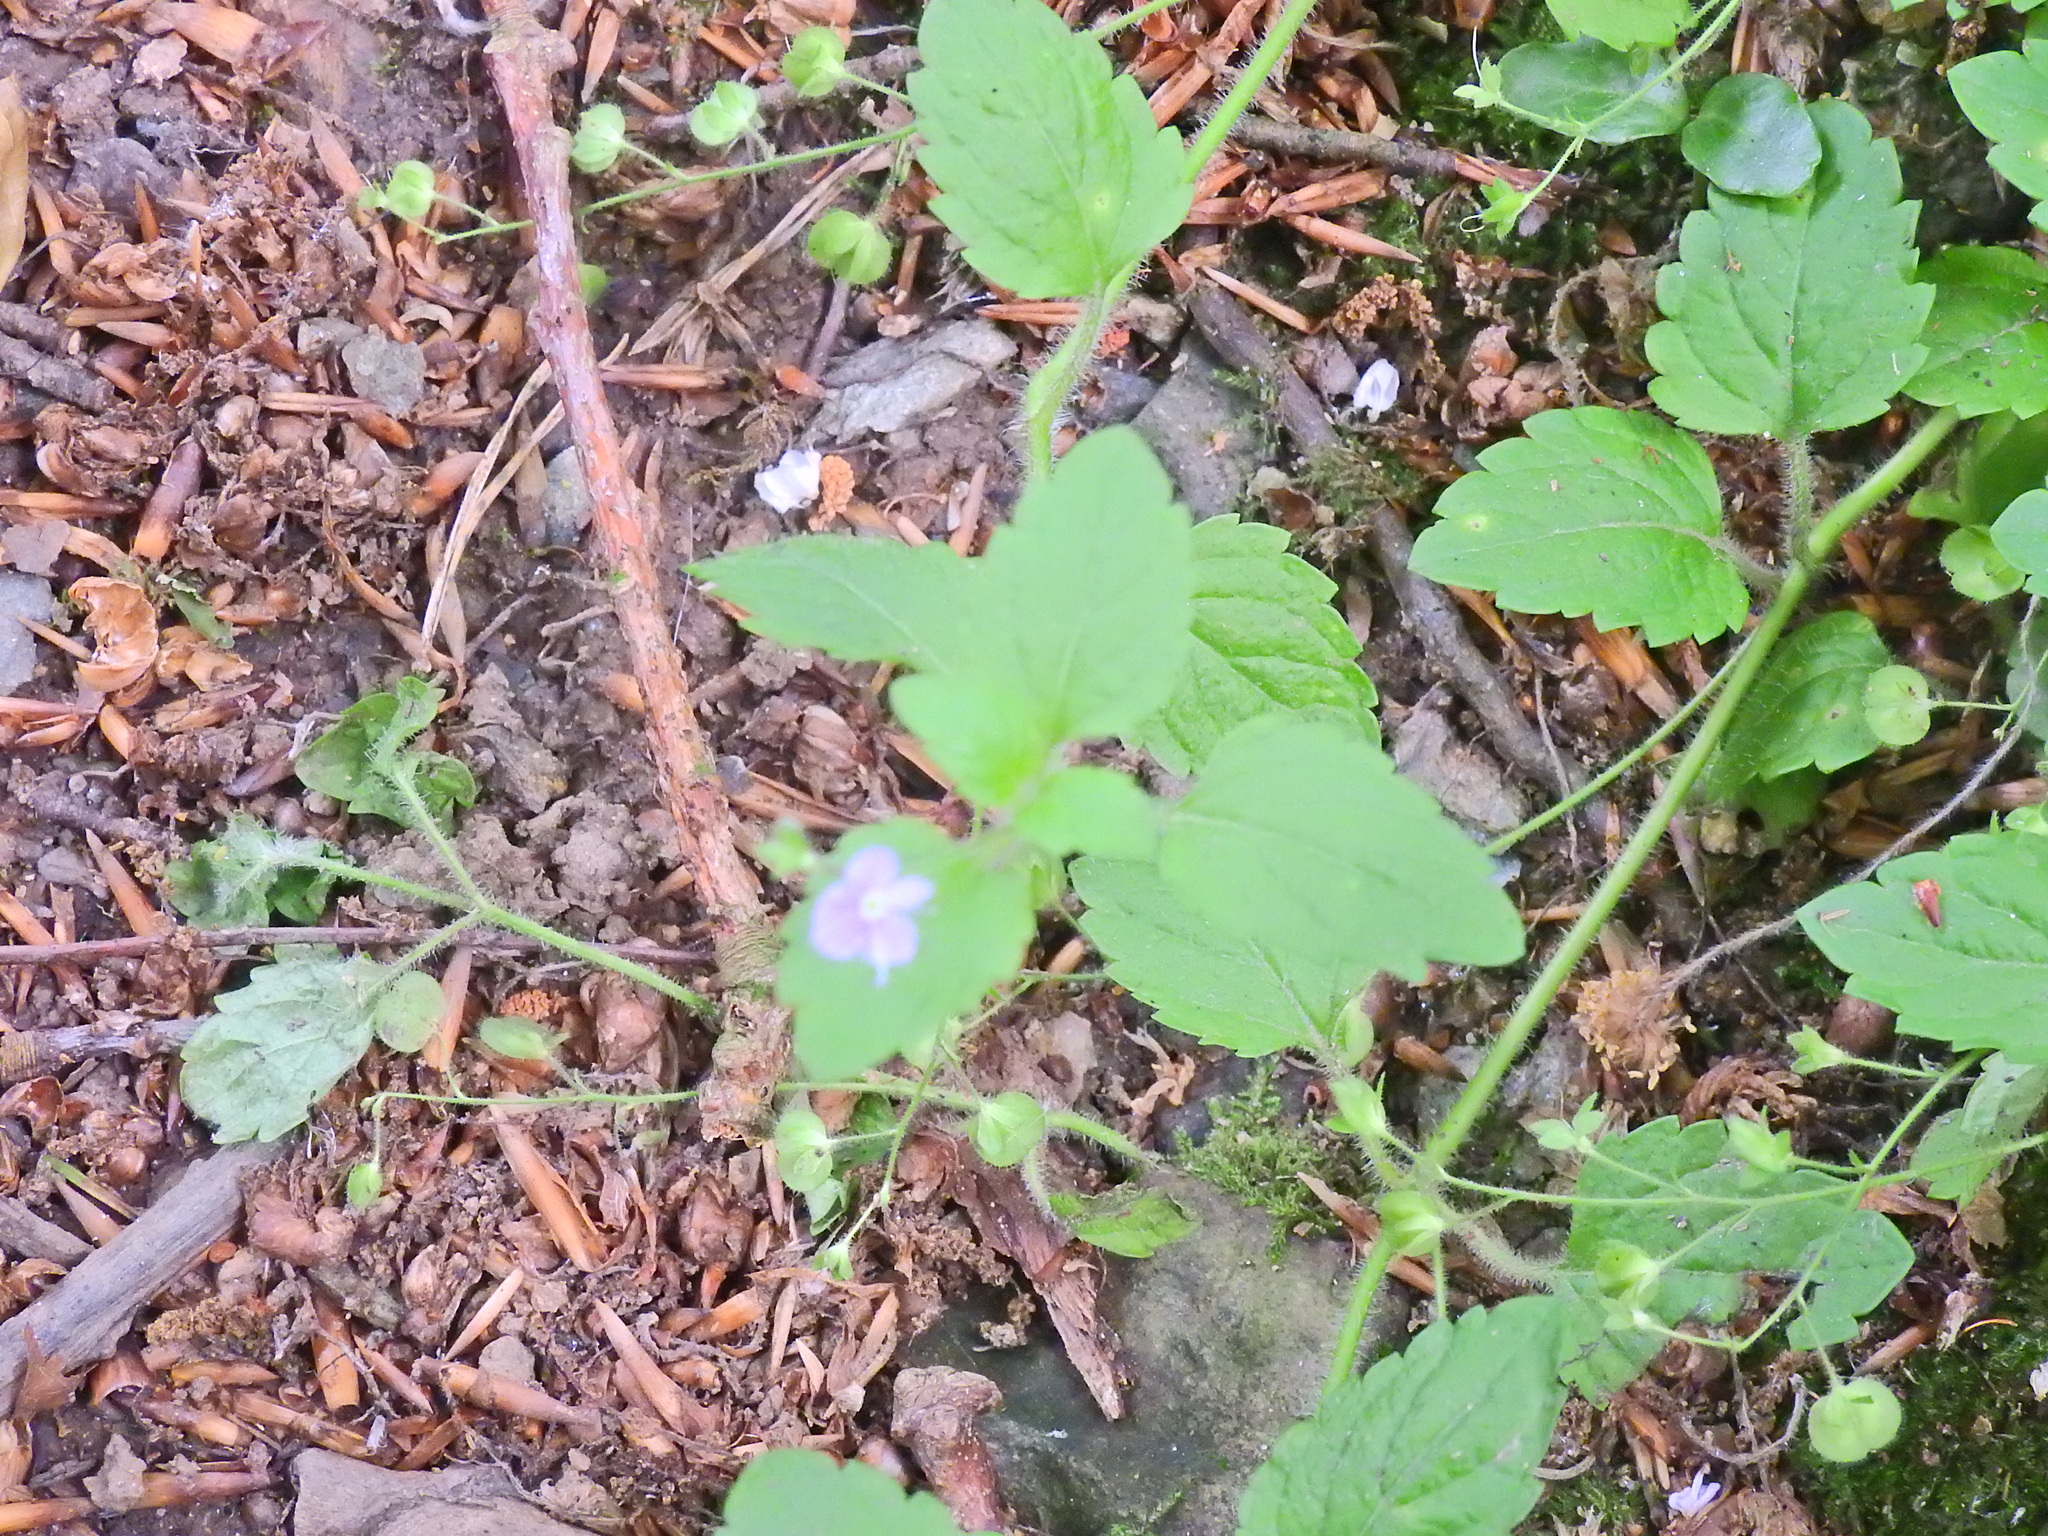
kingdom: Plantae
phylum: Tracheophyta
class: Magnoliopsida
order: Lamiales
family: Plantaginaceae
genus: Veronica
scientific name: Veronica montana
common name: Wood speedwell
